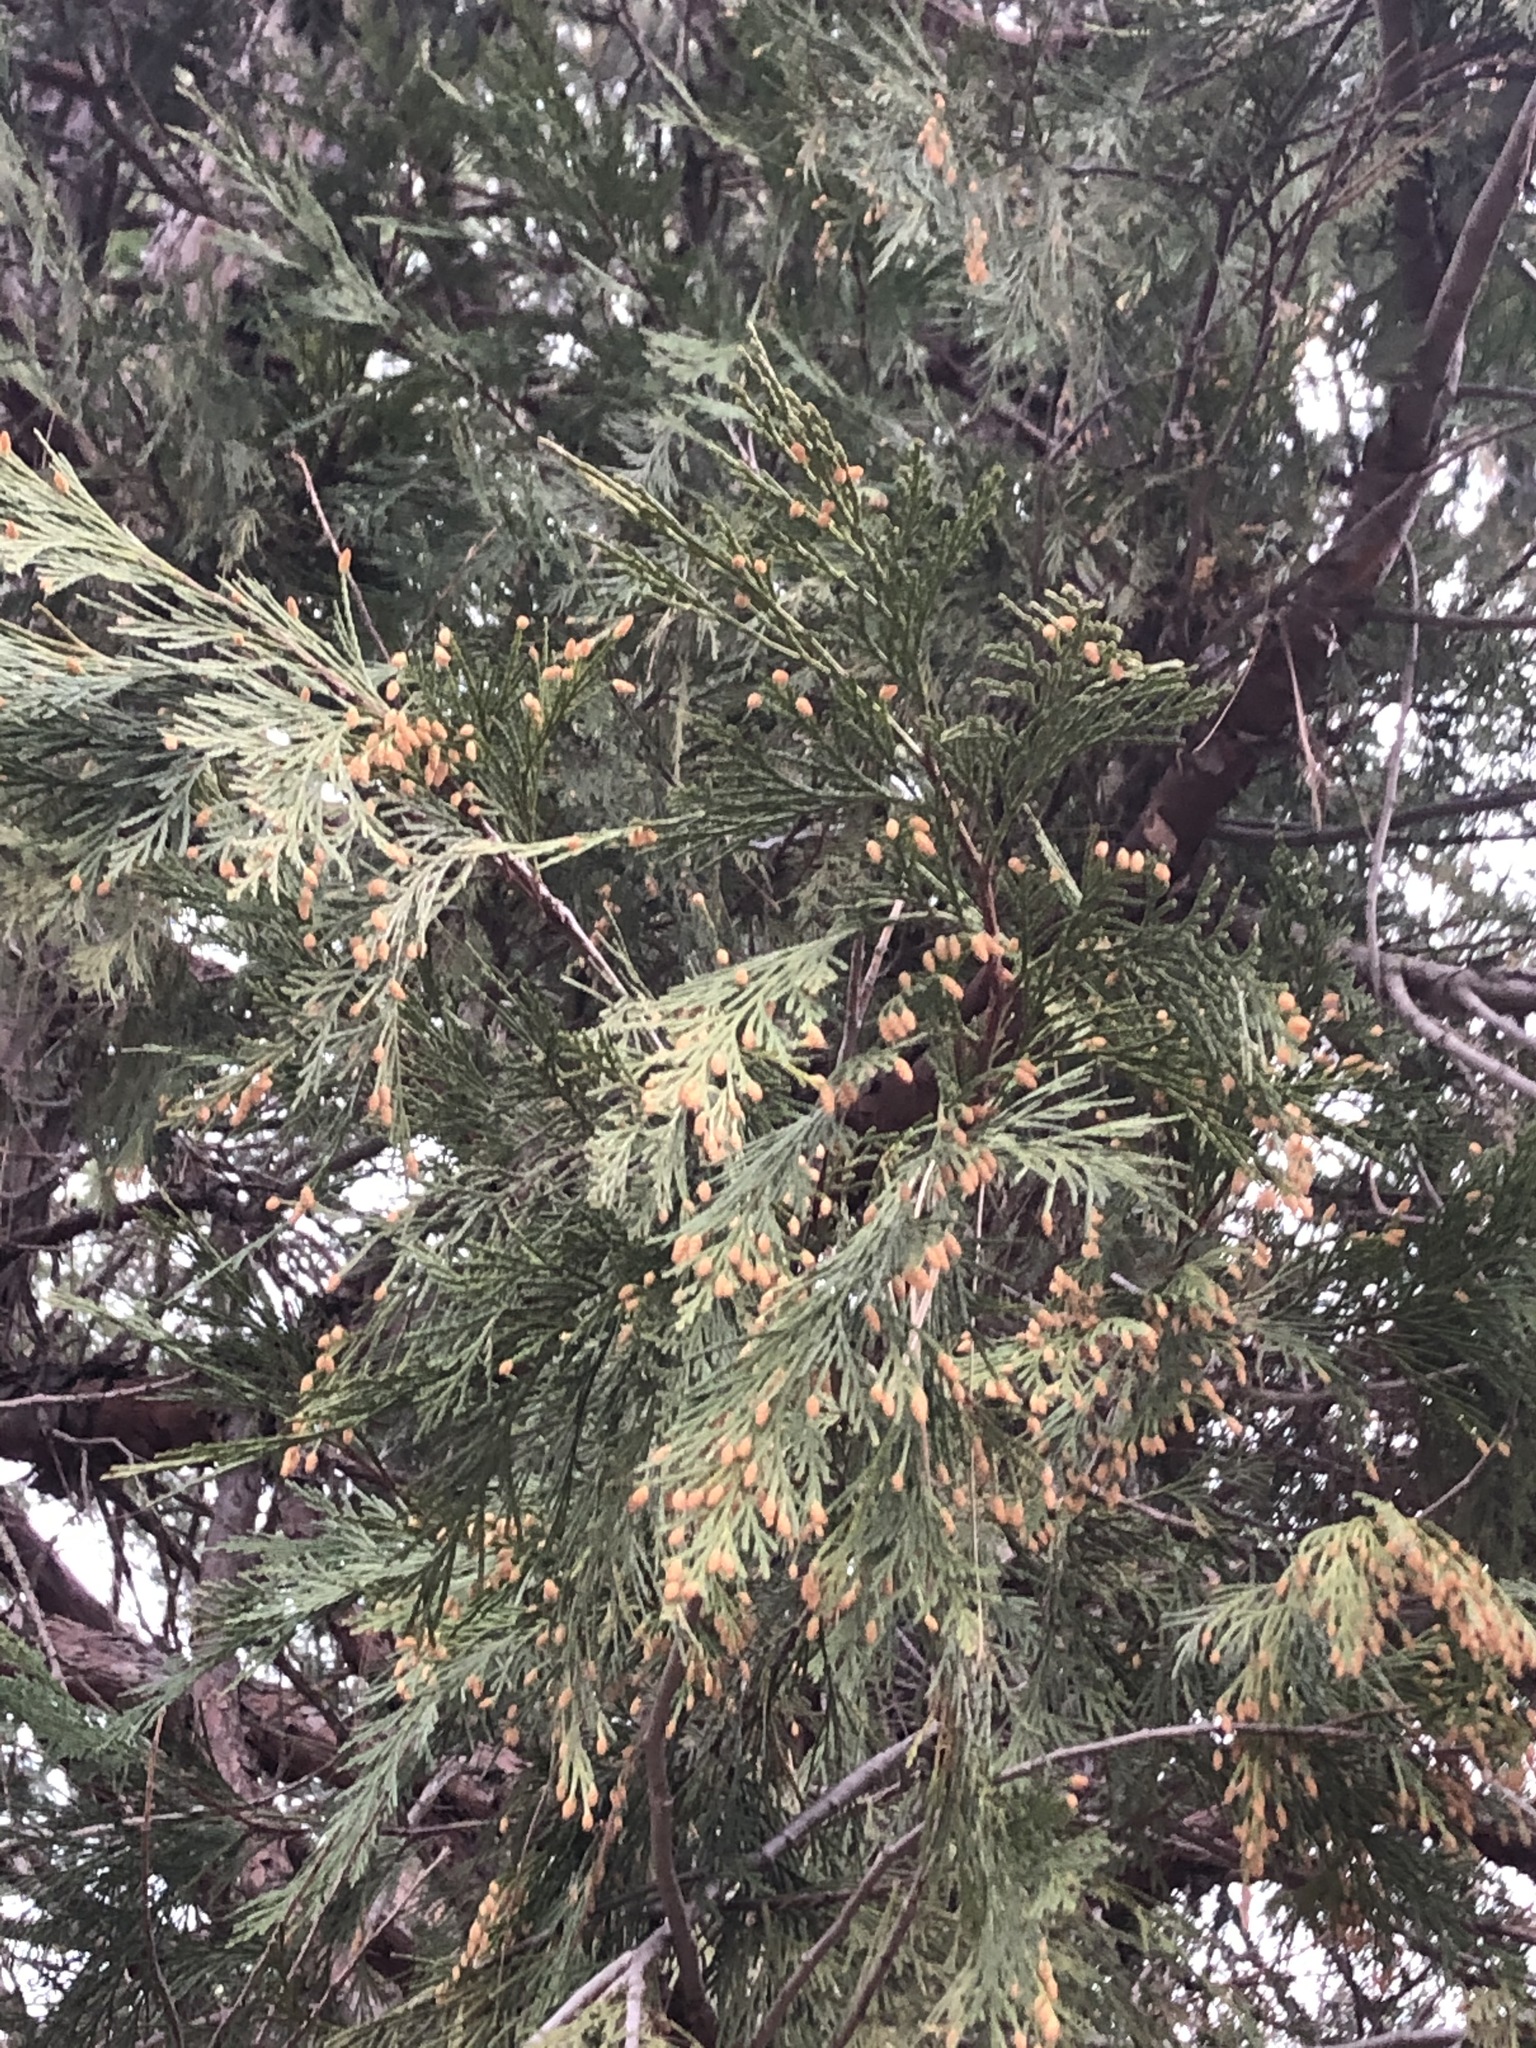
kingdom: Plantae
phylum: Tracheophyta
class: Pinopsida
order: Pinales
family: Cupressaceae
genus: Calocedrus
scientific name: Calocedrus decurrens
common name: Californian incense-cedar
